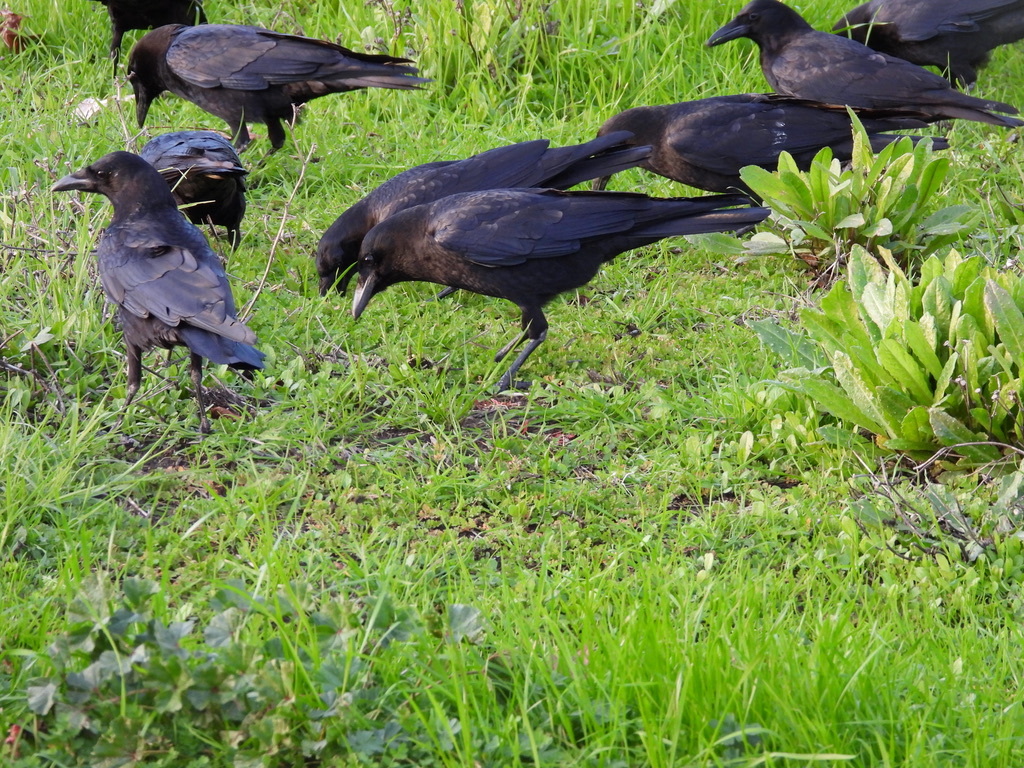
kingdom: Animalia
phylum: Chordata
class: Aves
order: Passeriformes
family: Corvidae
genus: Corvus
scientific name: Corvus brachyrhynchos
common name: American crow
